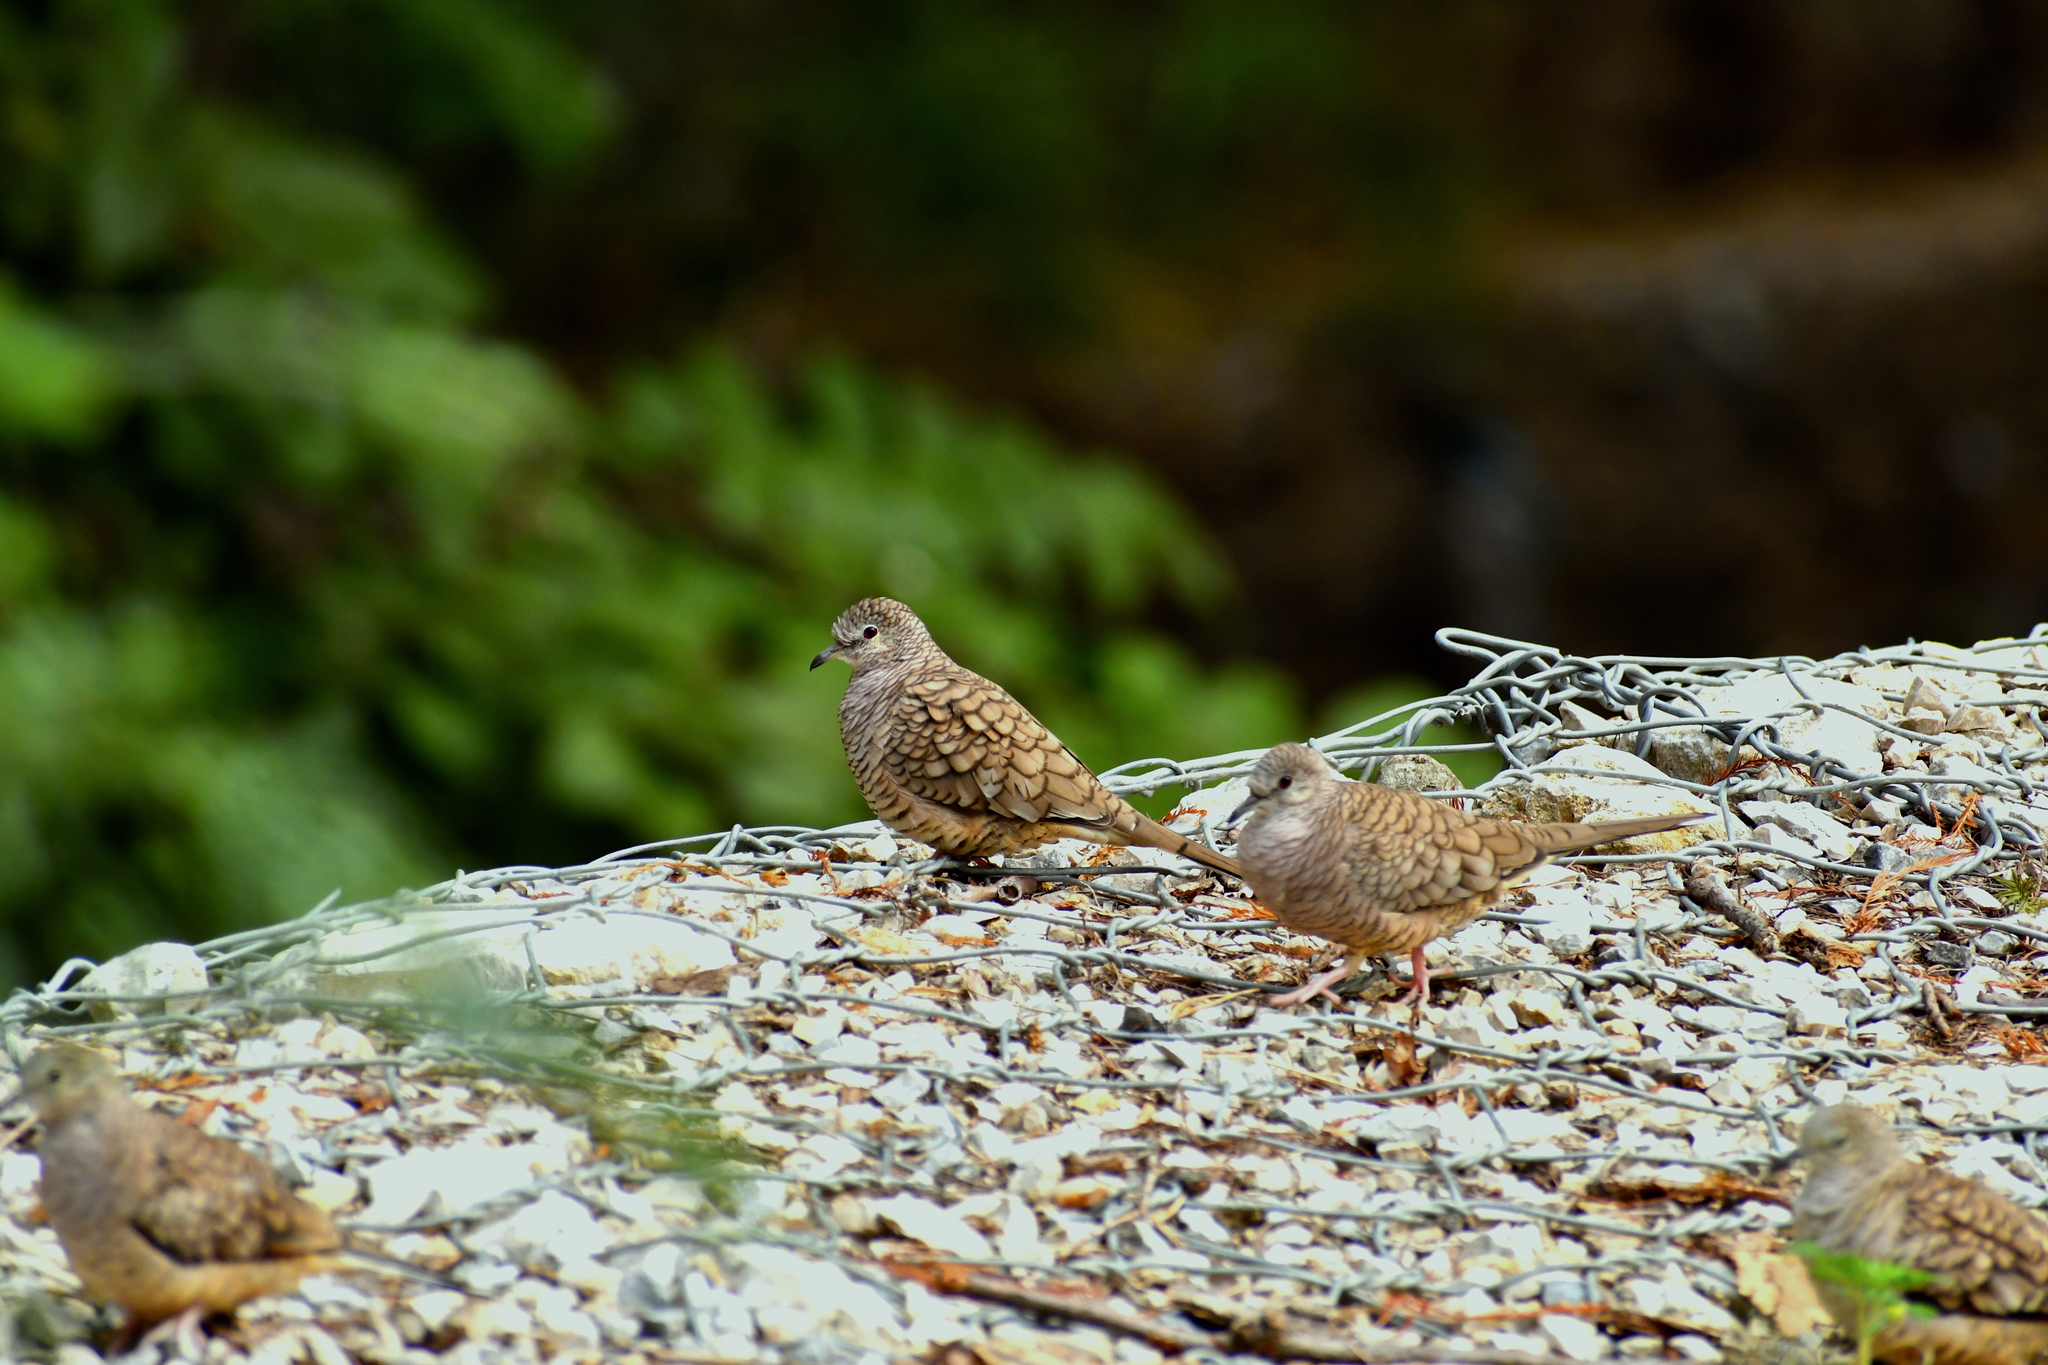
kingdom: Animalia
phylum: Chordata
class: Aves
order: Columbiformes
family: Columbidae
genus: Columbina
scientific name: Columbina inca
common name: Inca dove
